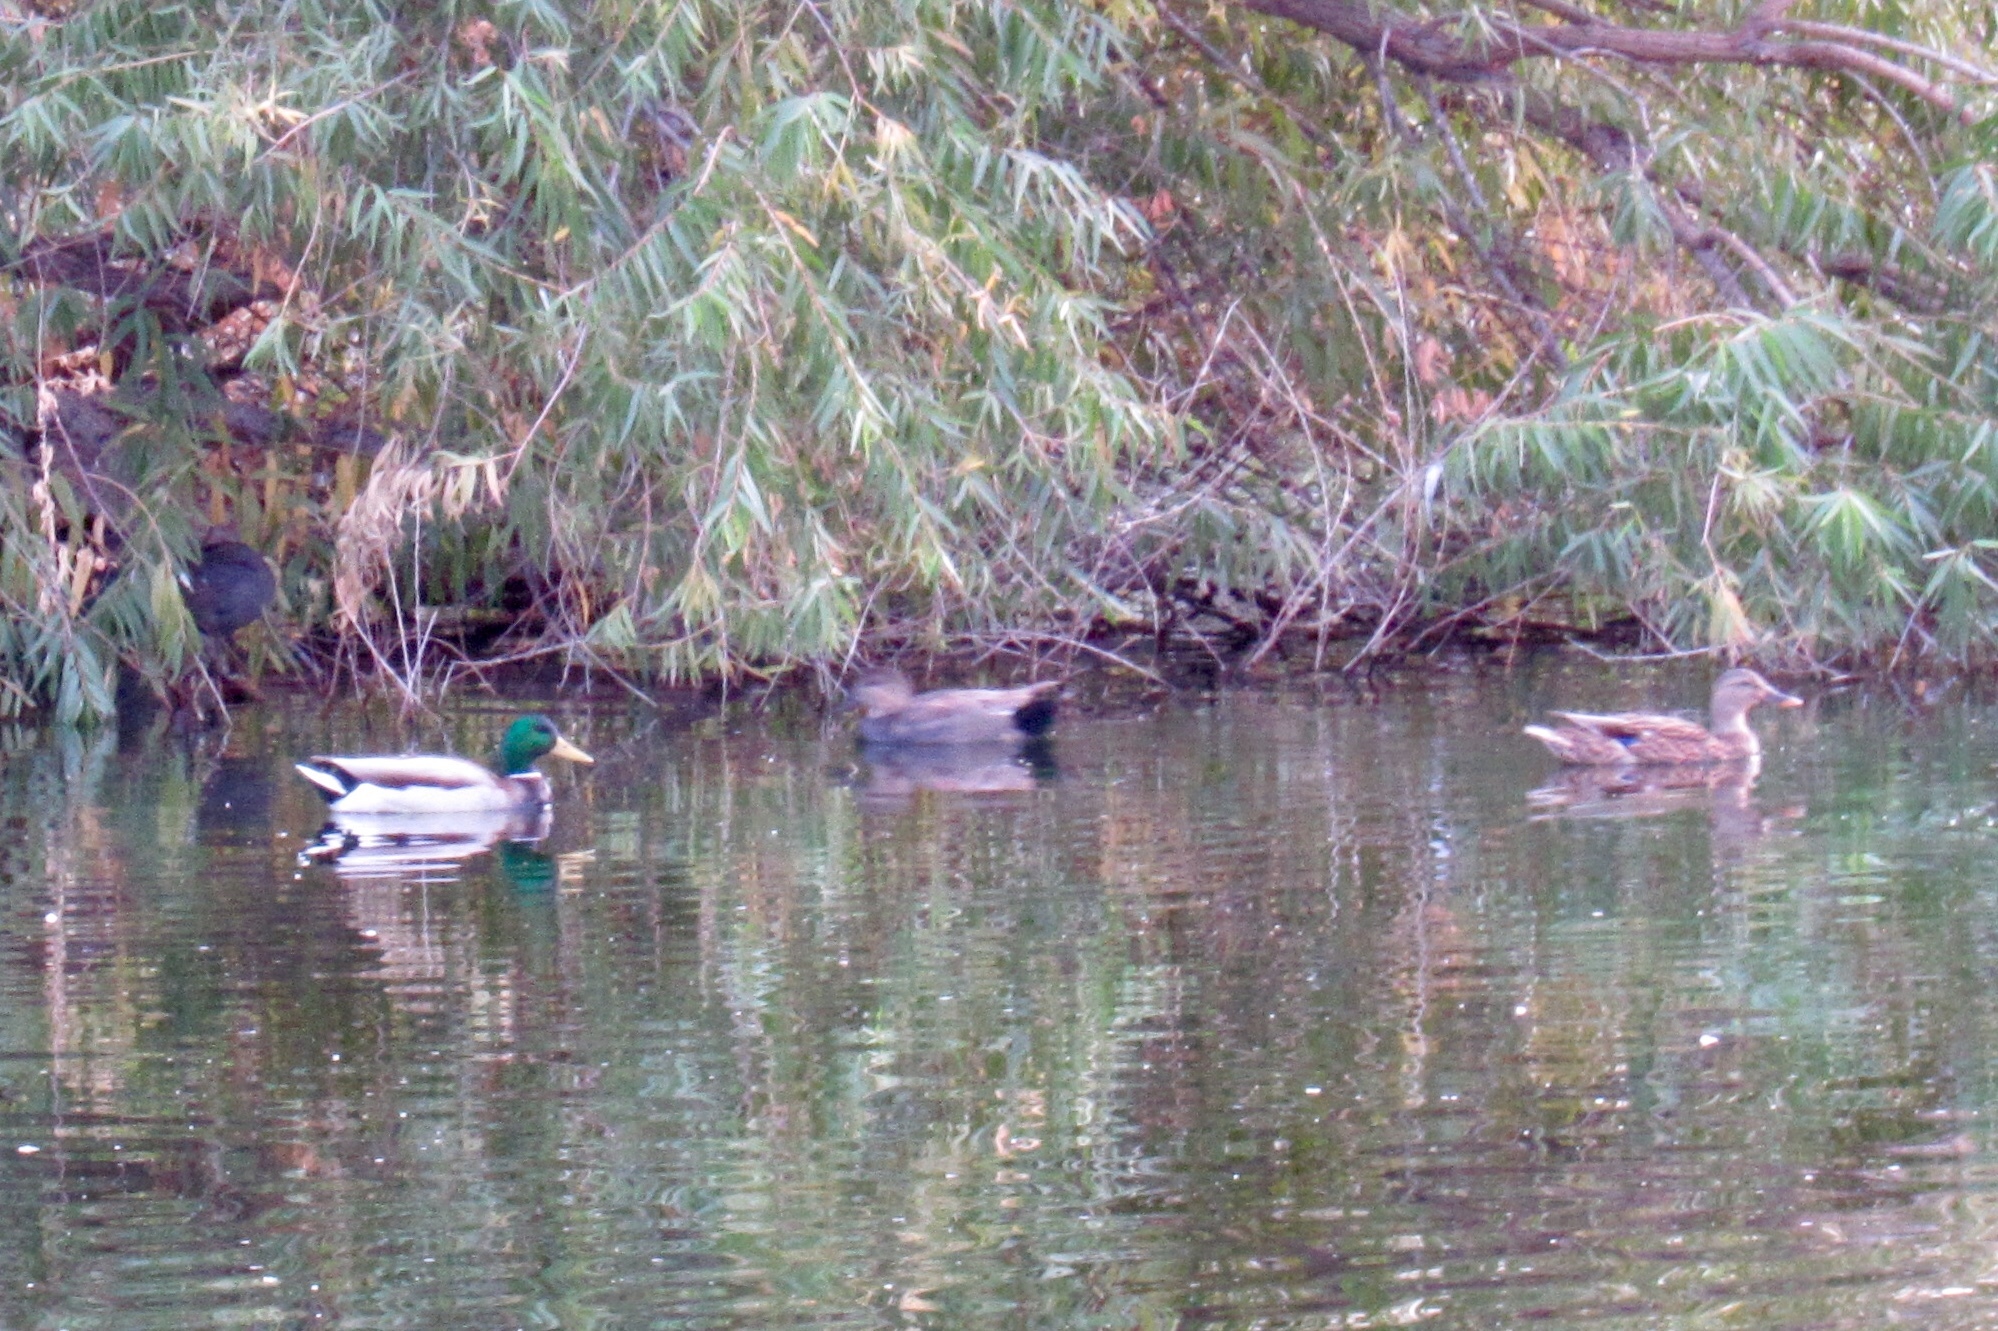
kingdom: Animalia
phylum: Chordata
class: Aves
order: Anseriformes
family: Anatidae
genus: Anas
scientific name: Anas platyrhynchos
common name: Mallard
